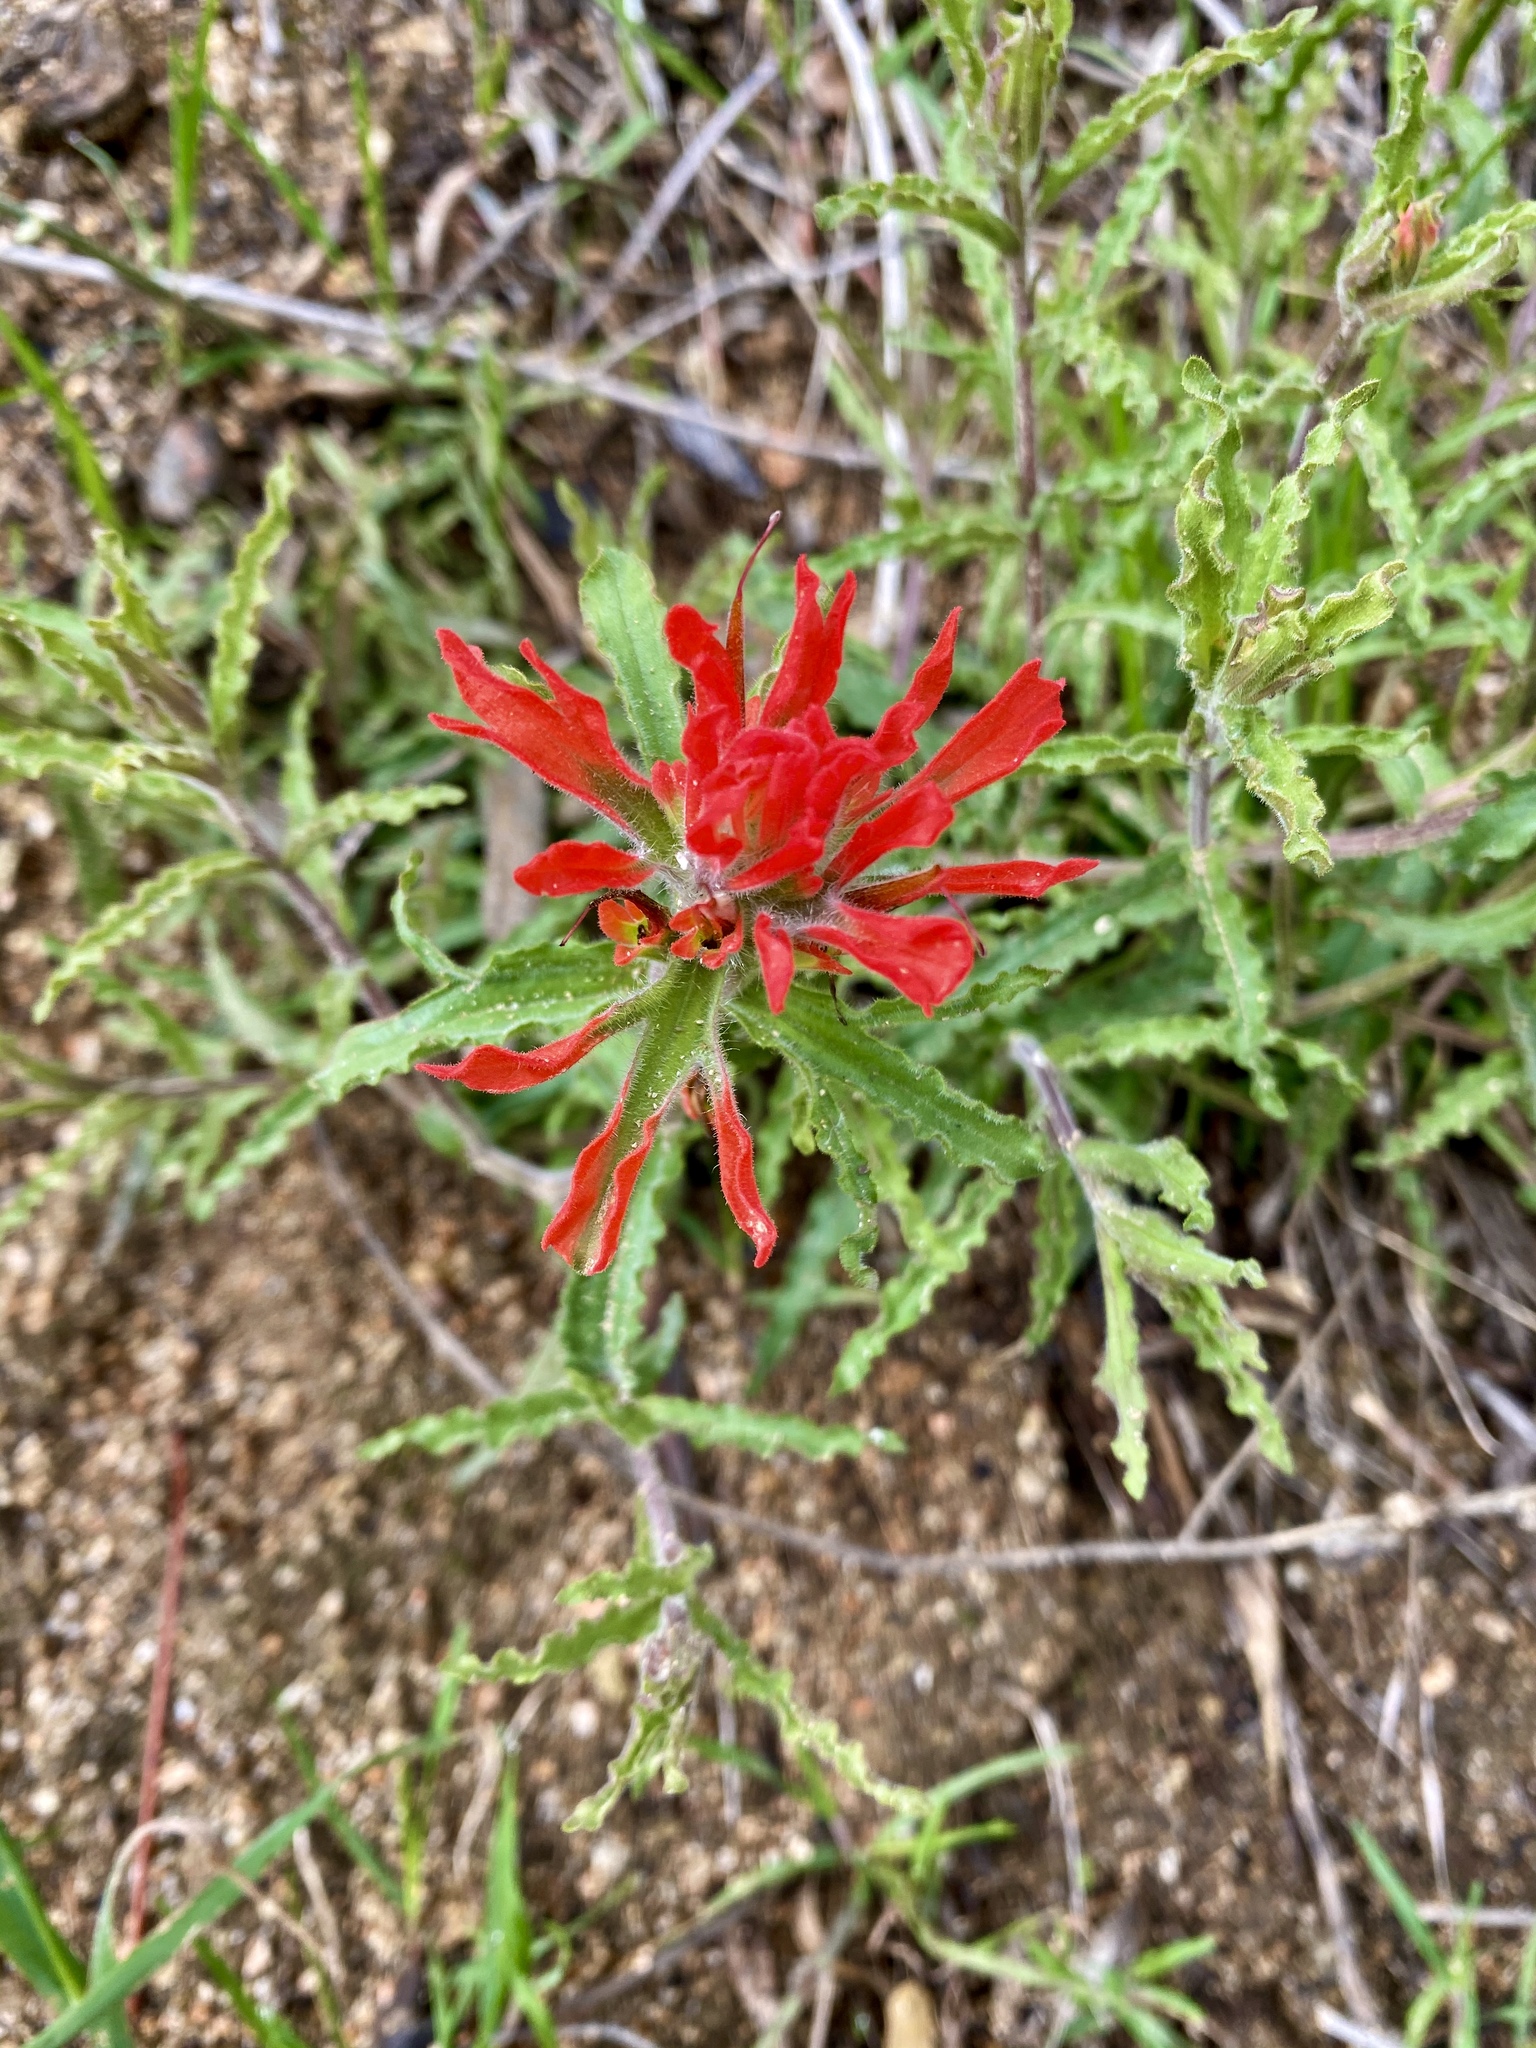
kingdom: Plantae
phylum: Tracheophyta
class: Magnoliopsida
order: Lamiales
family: Orobanchaceae
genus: Castilleja
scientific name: Castilleja martini
